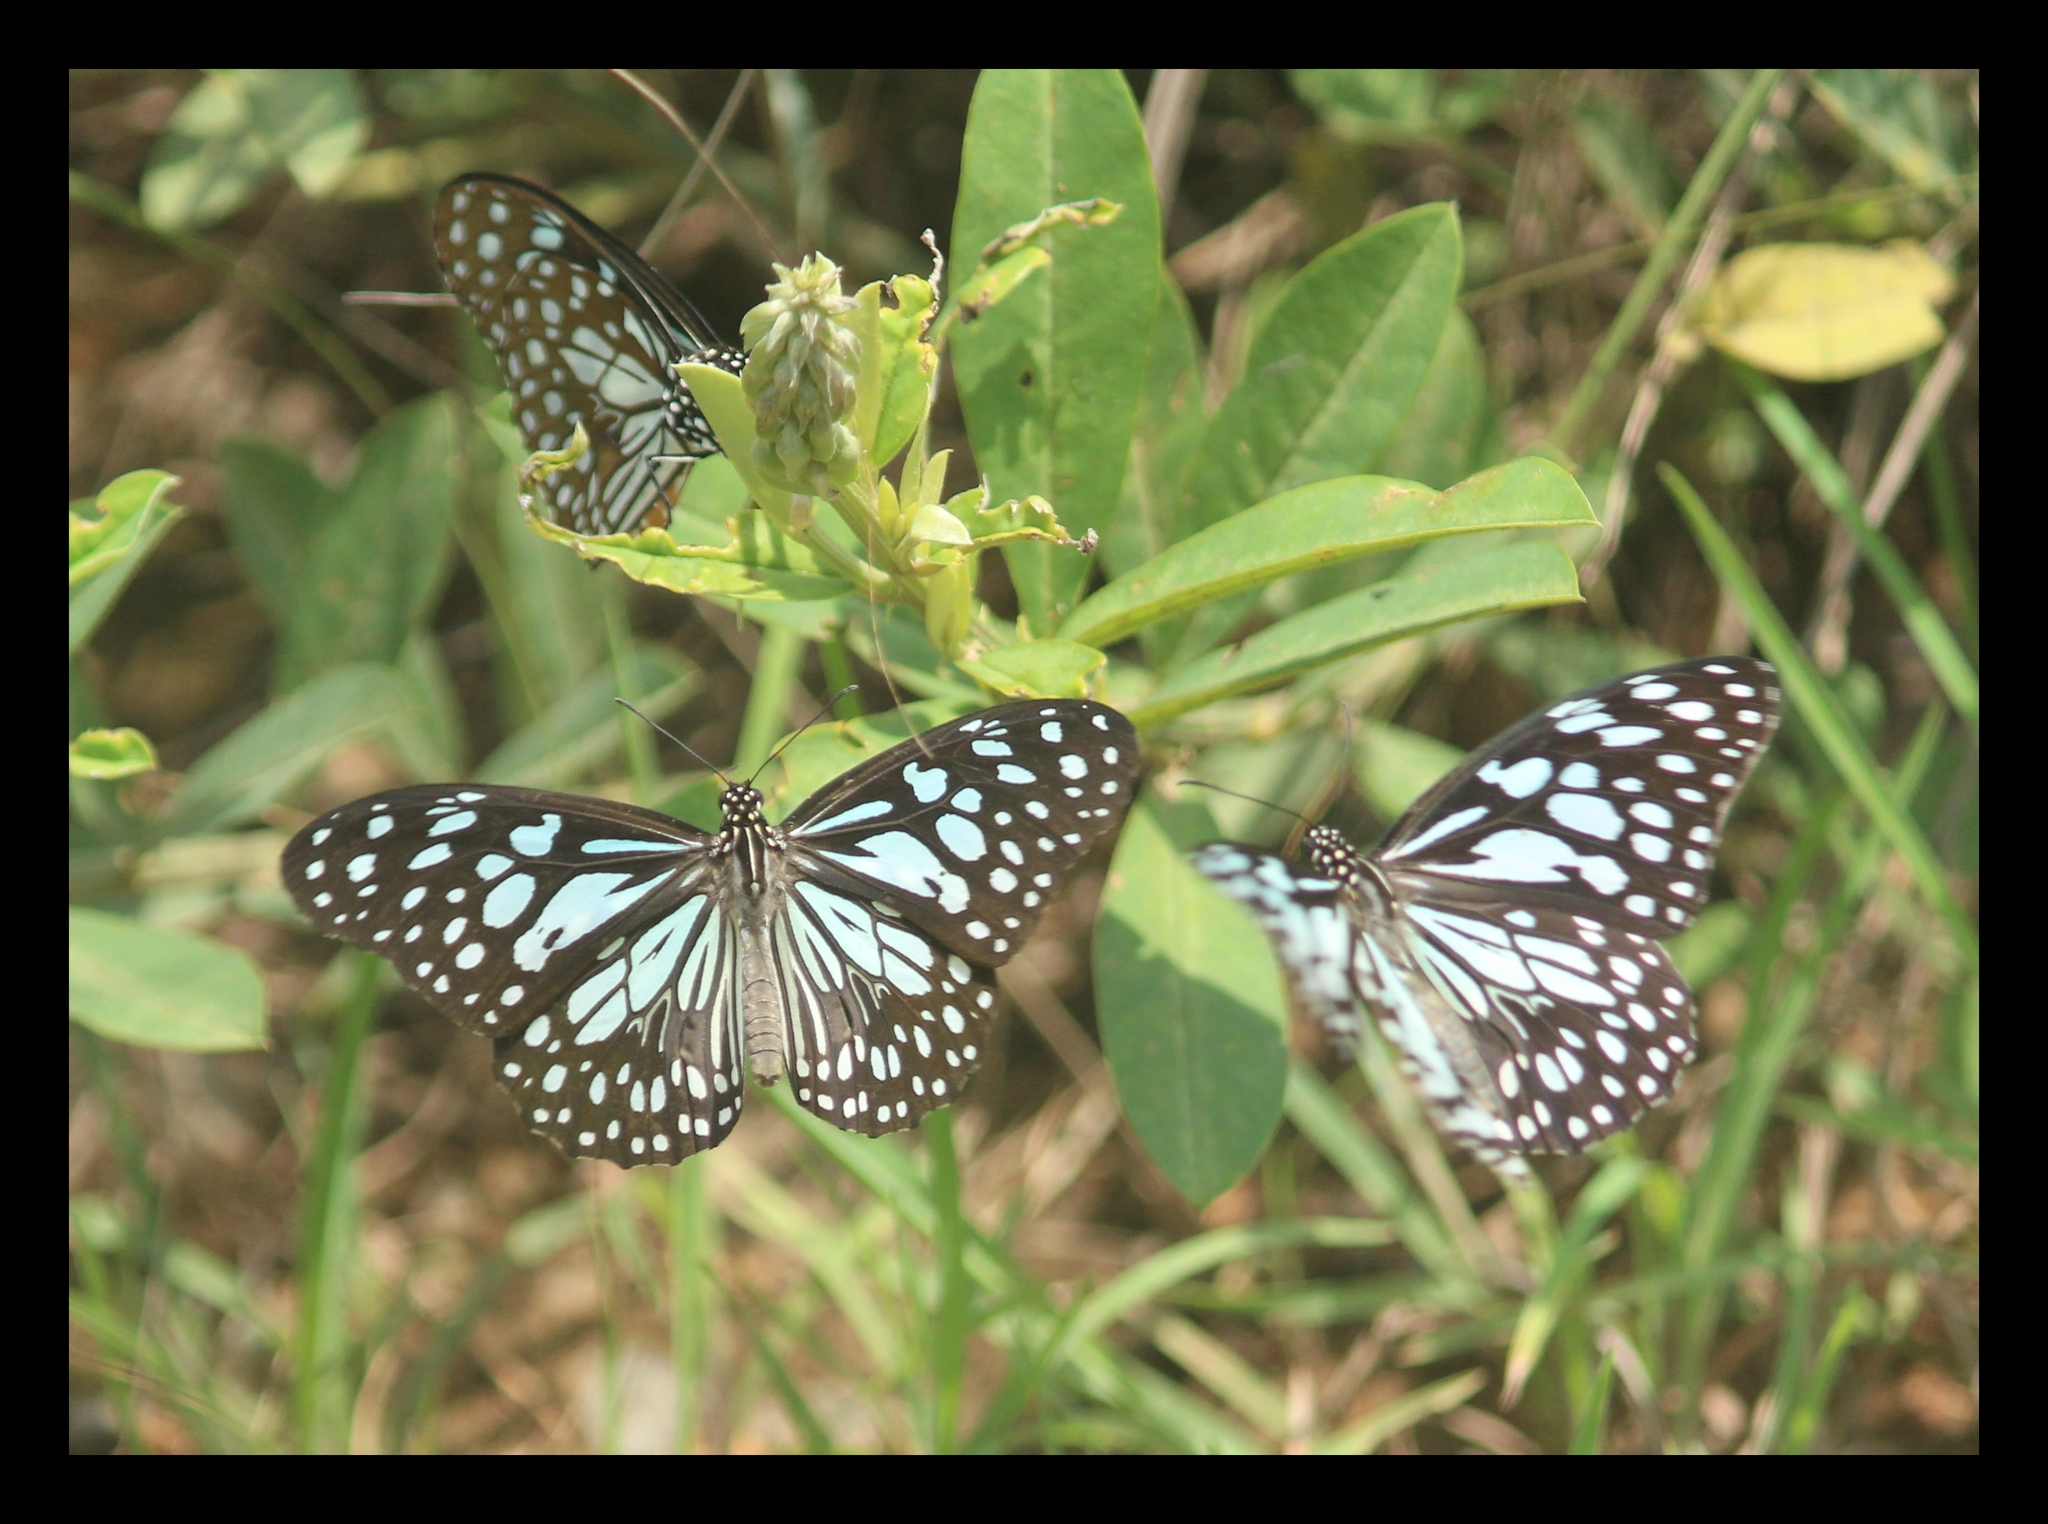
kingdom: Animalia
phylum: Arthropoda
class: Insecta
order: Lepidoptera
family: Nymphalidae
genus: Tirumala
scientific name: Tirumala limniace
